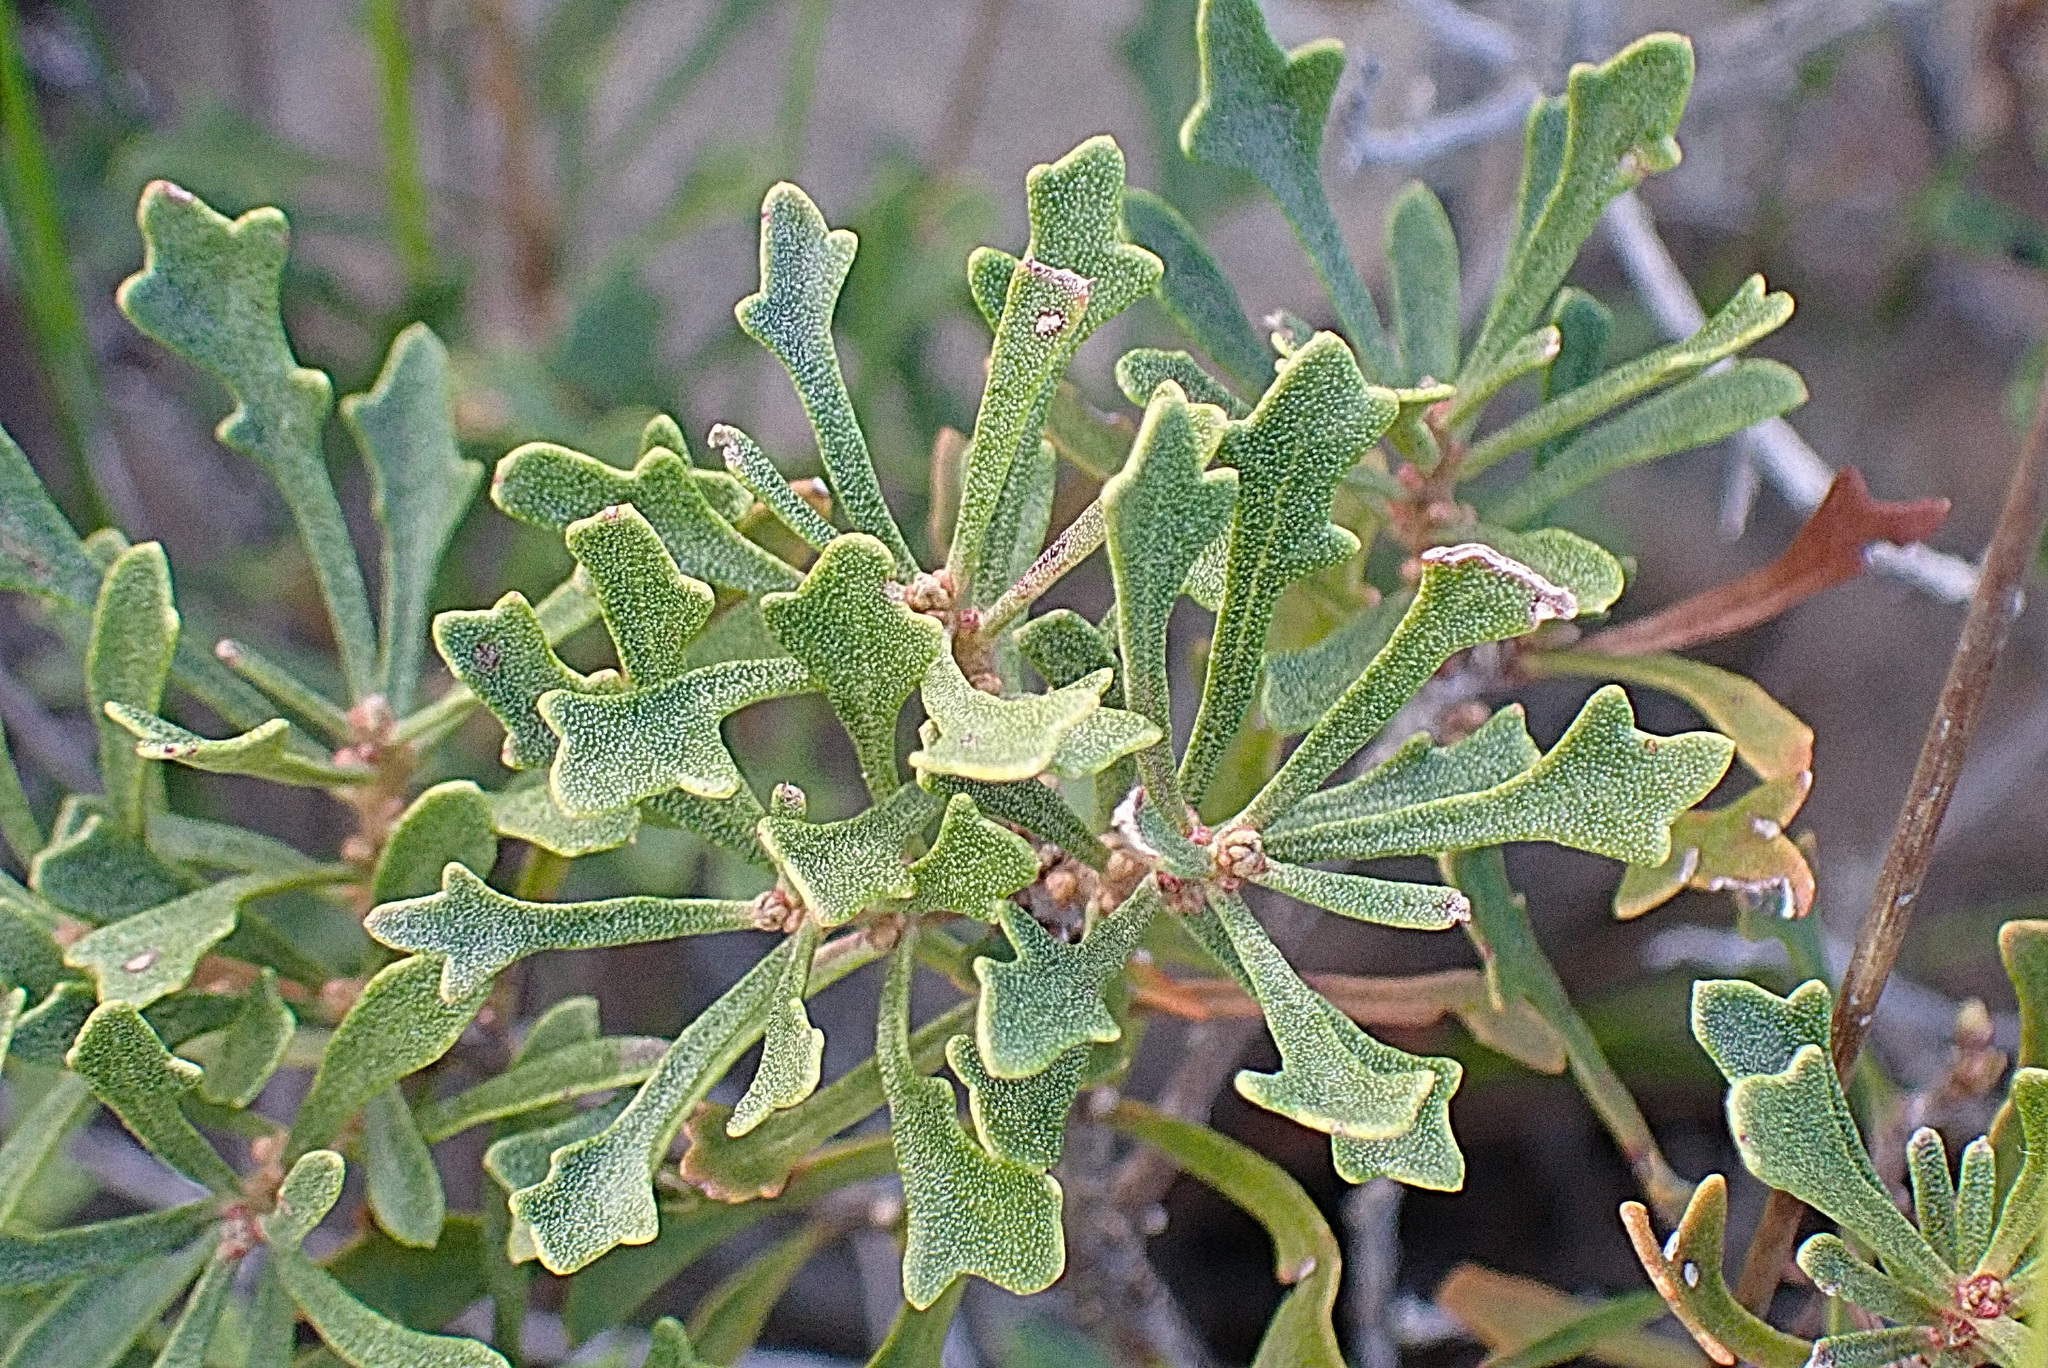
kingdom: Plantae
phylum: Tracheophyta
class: Magnoliopsida
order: Fagales
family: Myricaceae
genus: Morella
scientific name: Morella quercifolia
